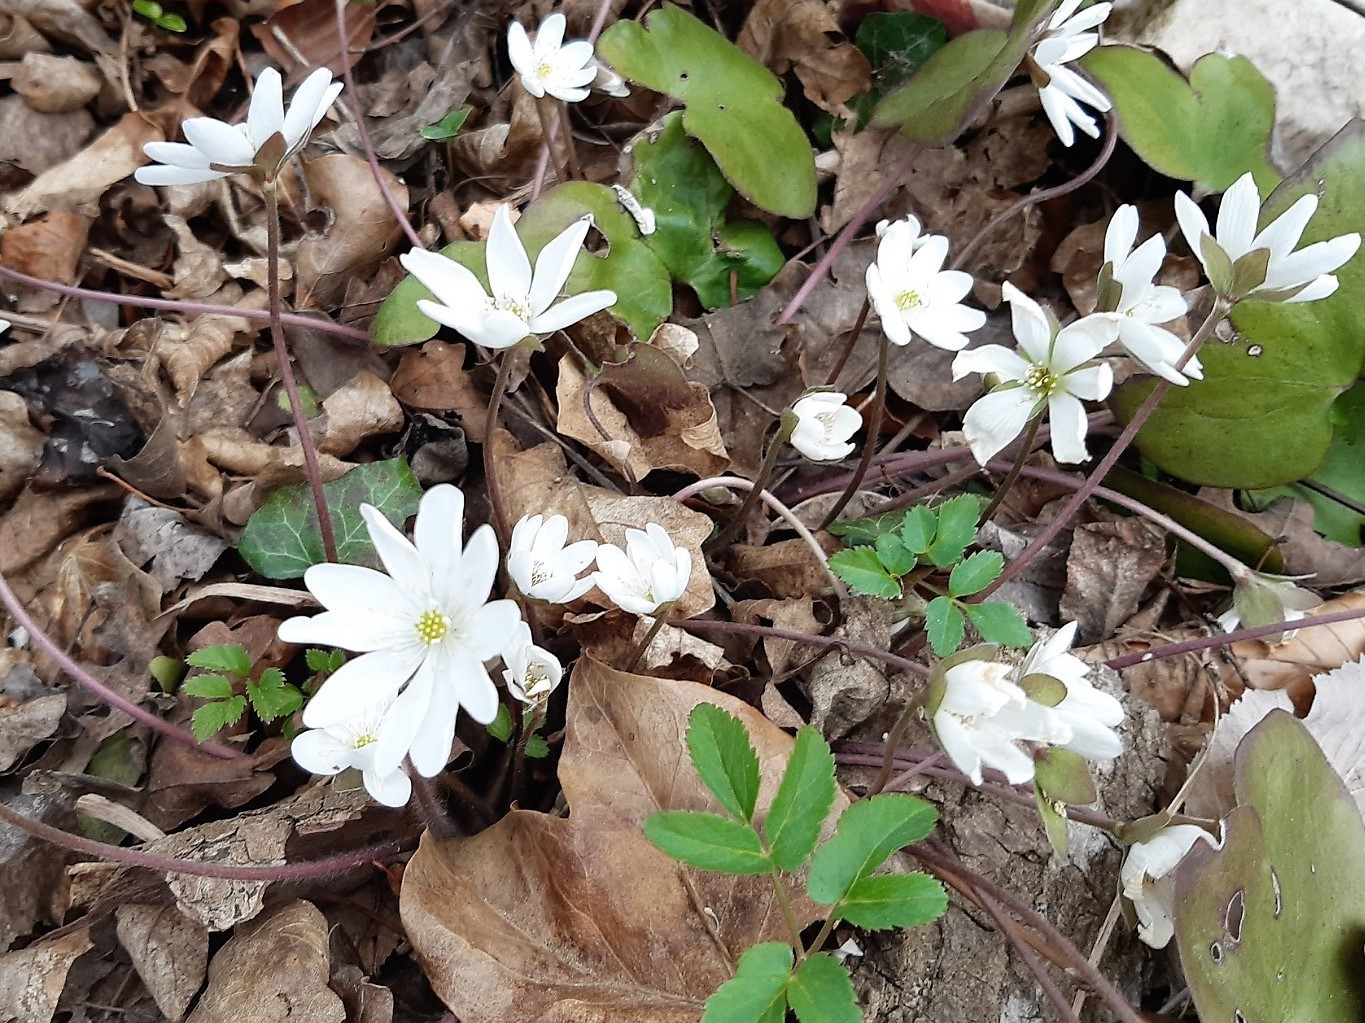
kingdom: Plantae
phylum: Tracheophyta
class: Magnoliopsida
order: Ranunculales
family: Ranunculaceae
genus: Hepatica
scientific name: Hepatica nobilis
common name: Liverleaf
